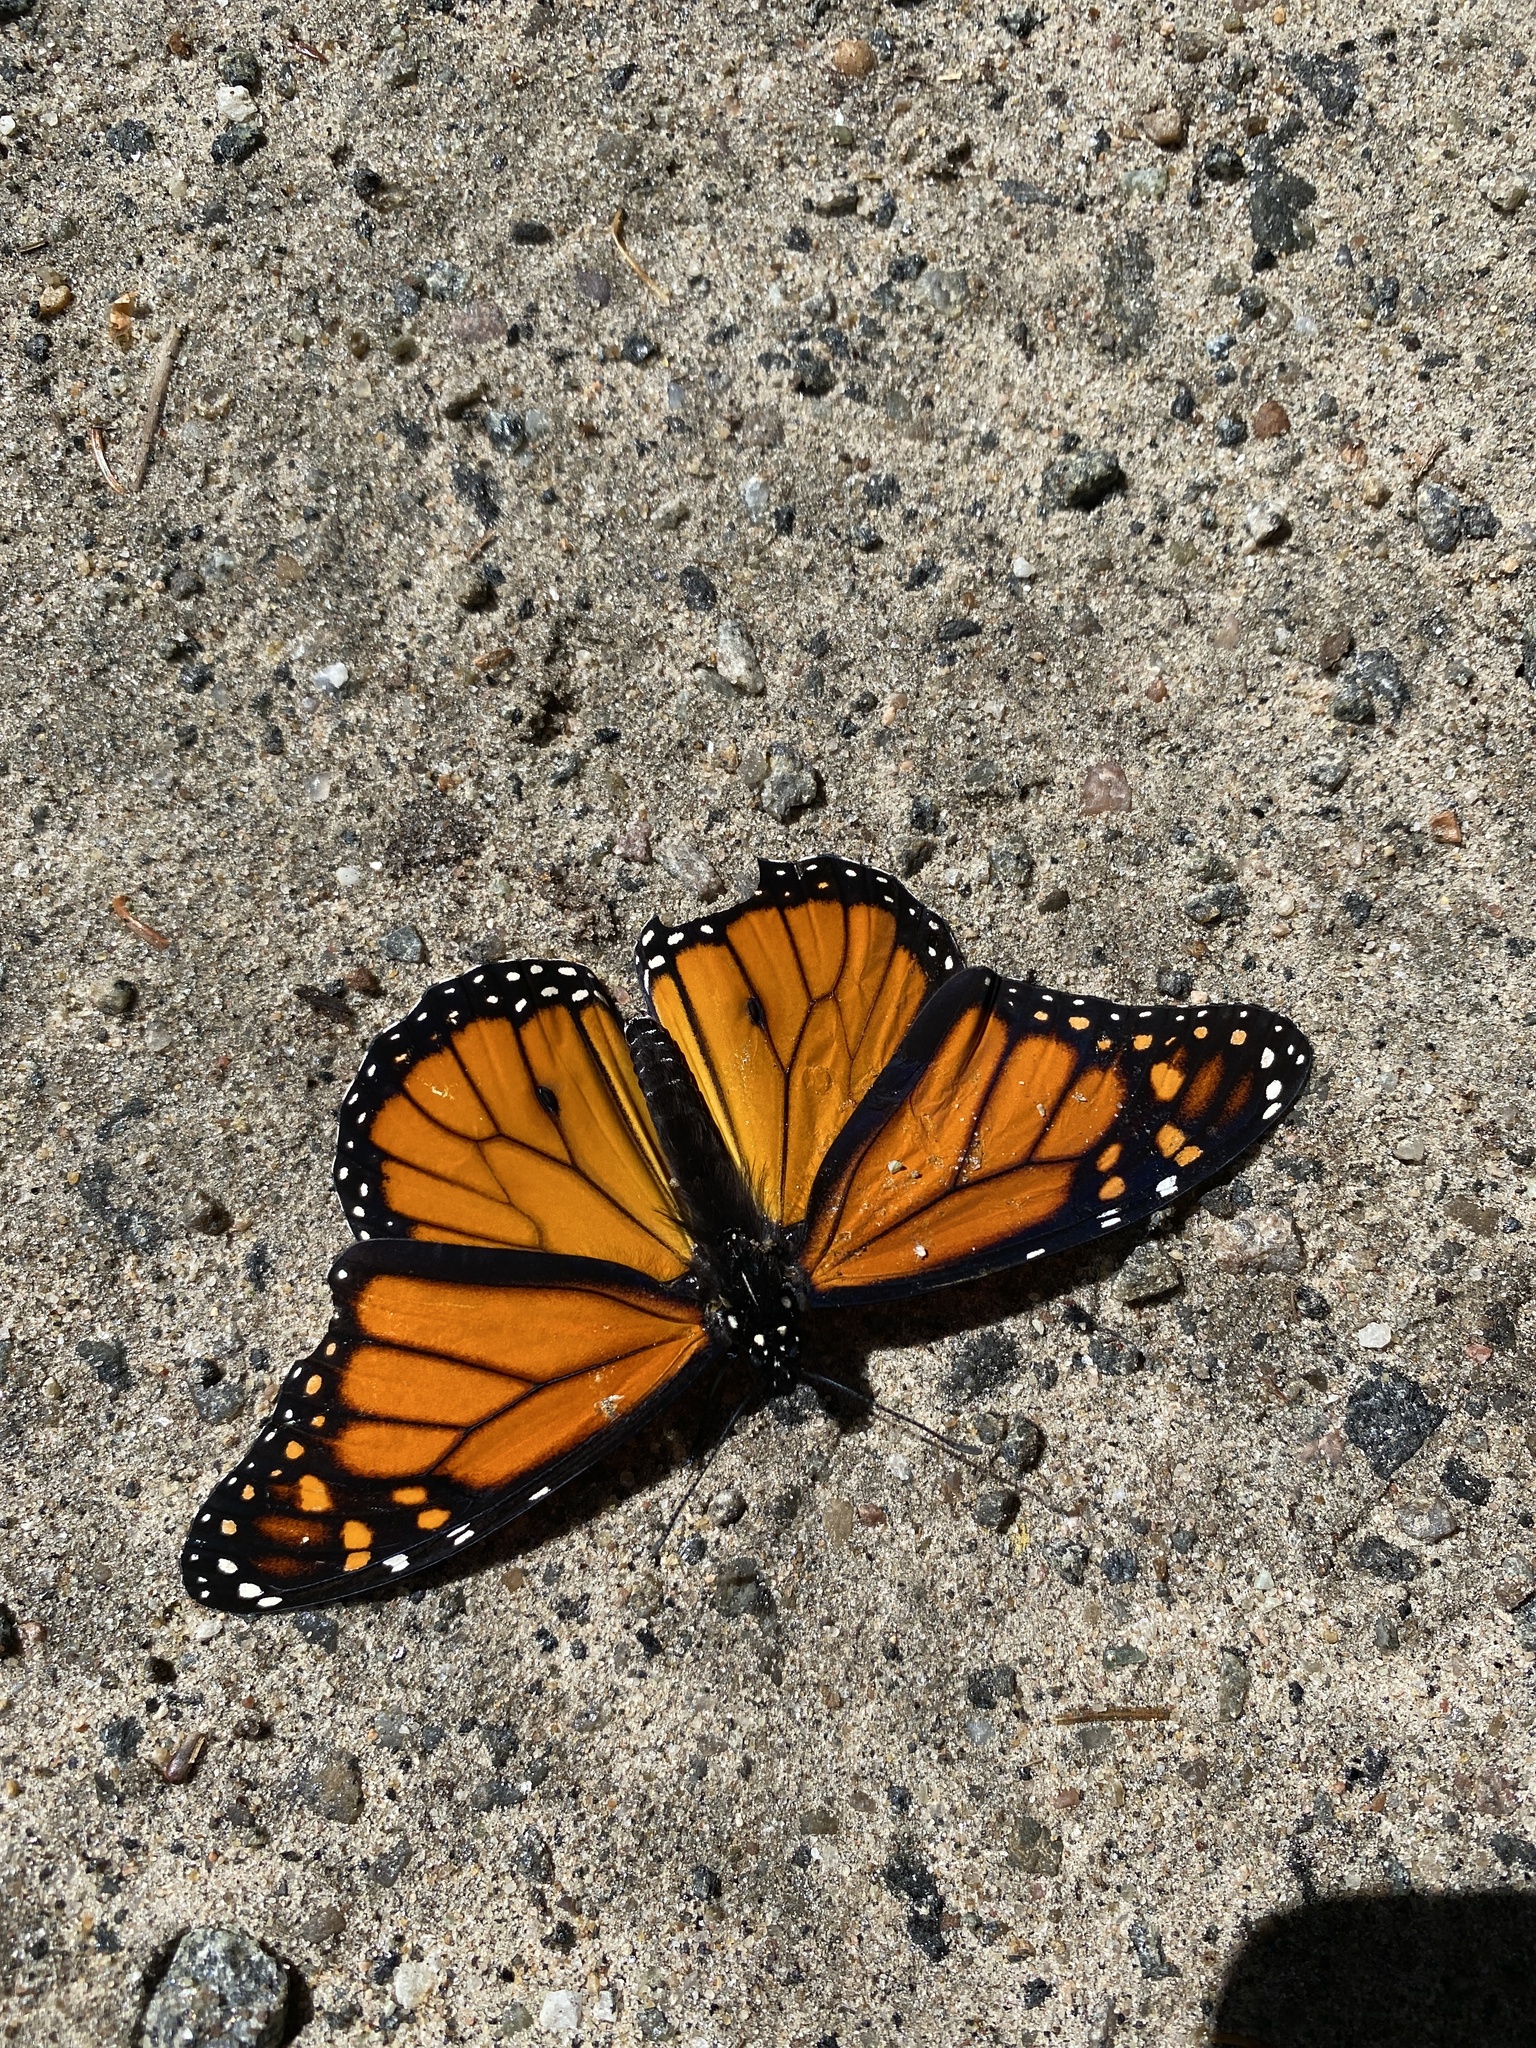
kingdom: Animalia
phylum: Arthropoda
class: Insecta
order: Lepidoptera
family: Nymphalidae
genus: Danaus
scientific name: Danaus plexippus
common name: Monarch
